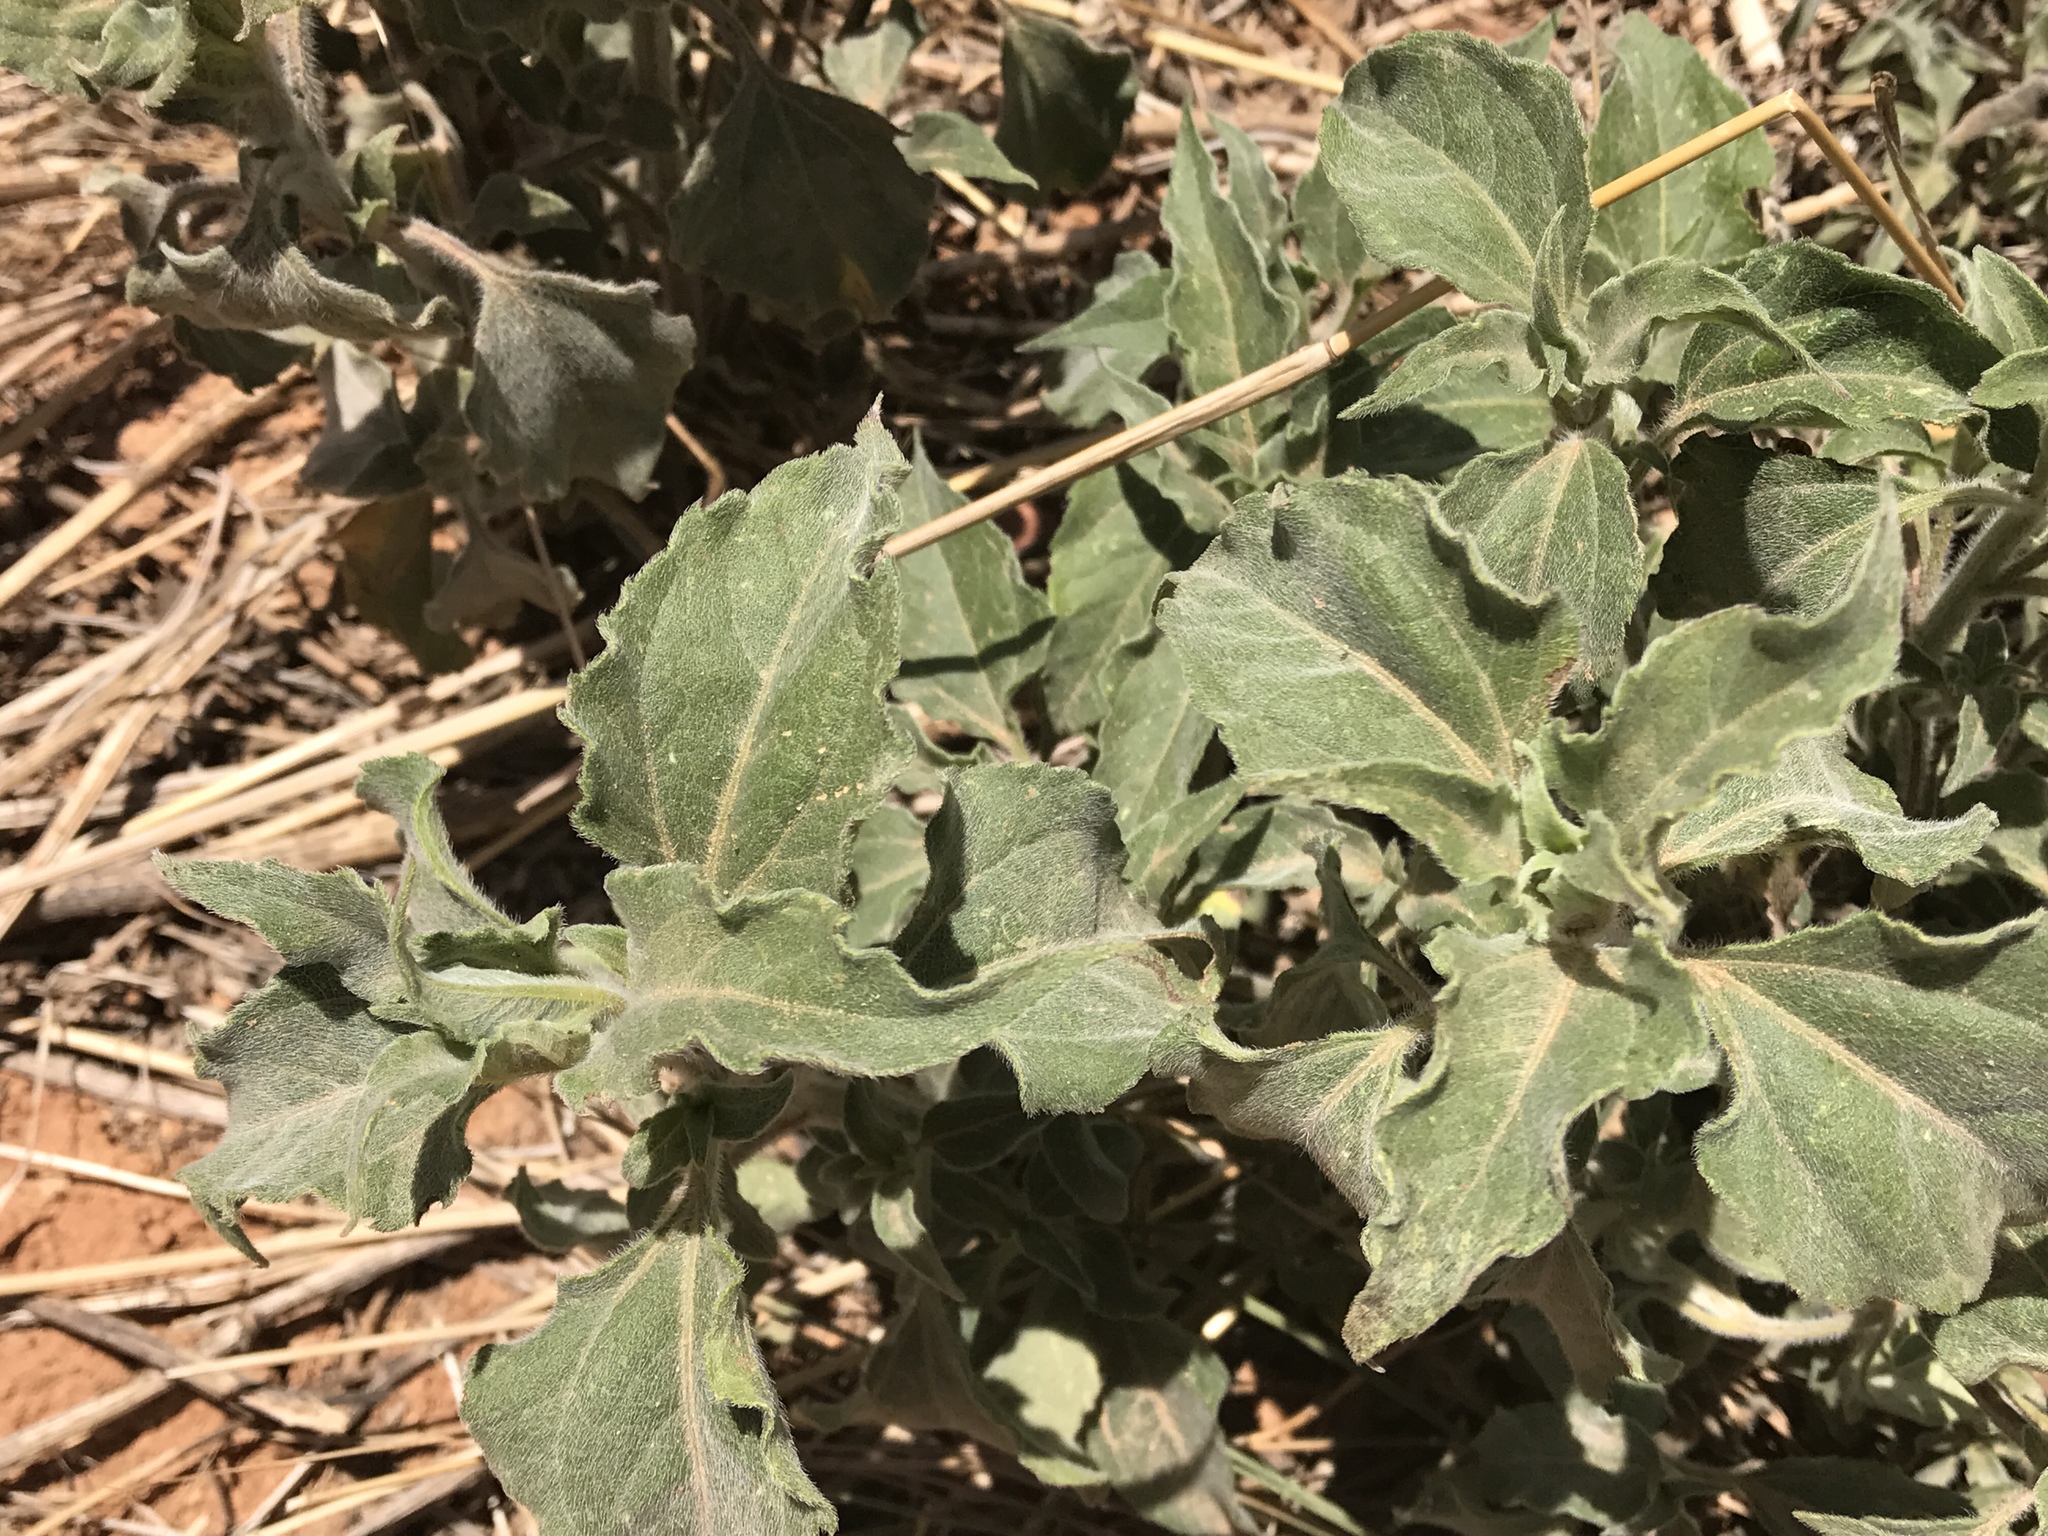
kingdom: Plantae
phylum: Tracheophyta
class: Magnoliopsida
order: Asterales
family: Asteraceae
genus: Verbesina
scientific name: Verbesina encelioides
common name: Golden crownbeard
